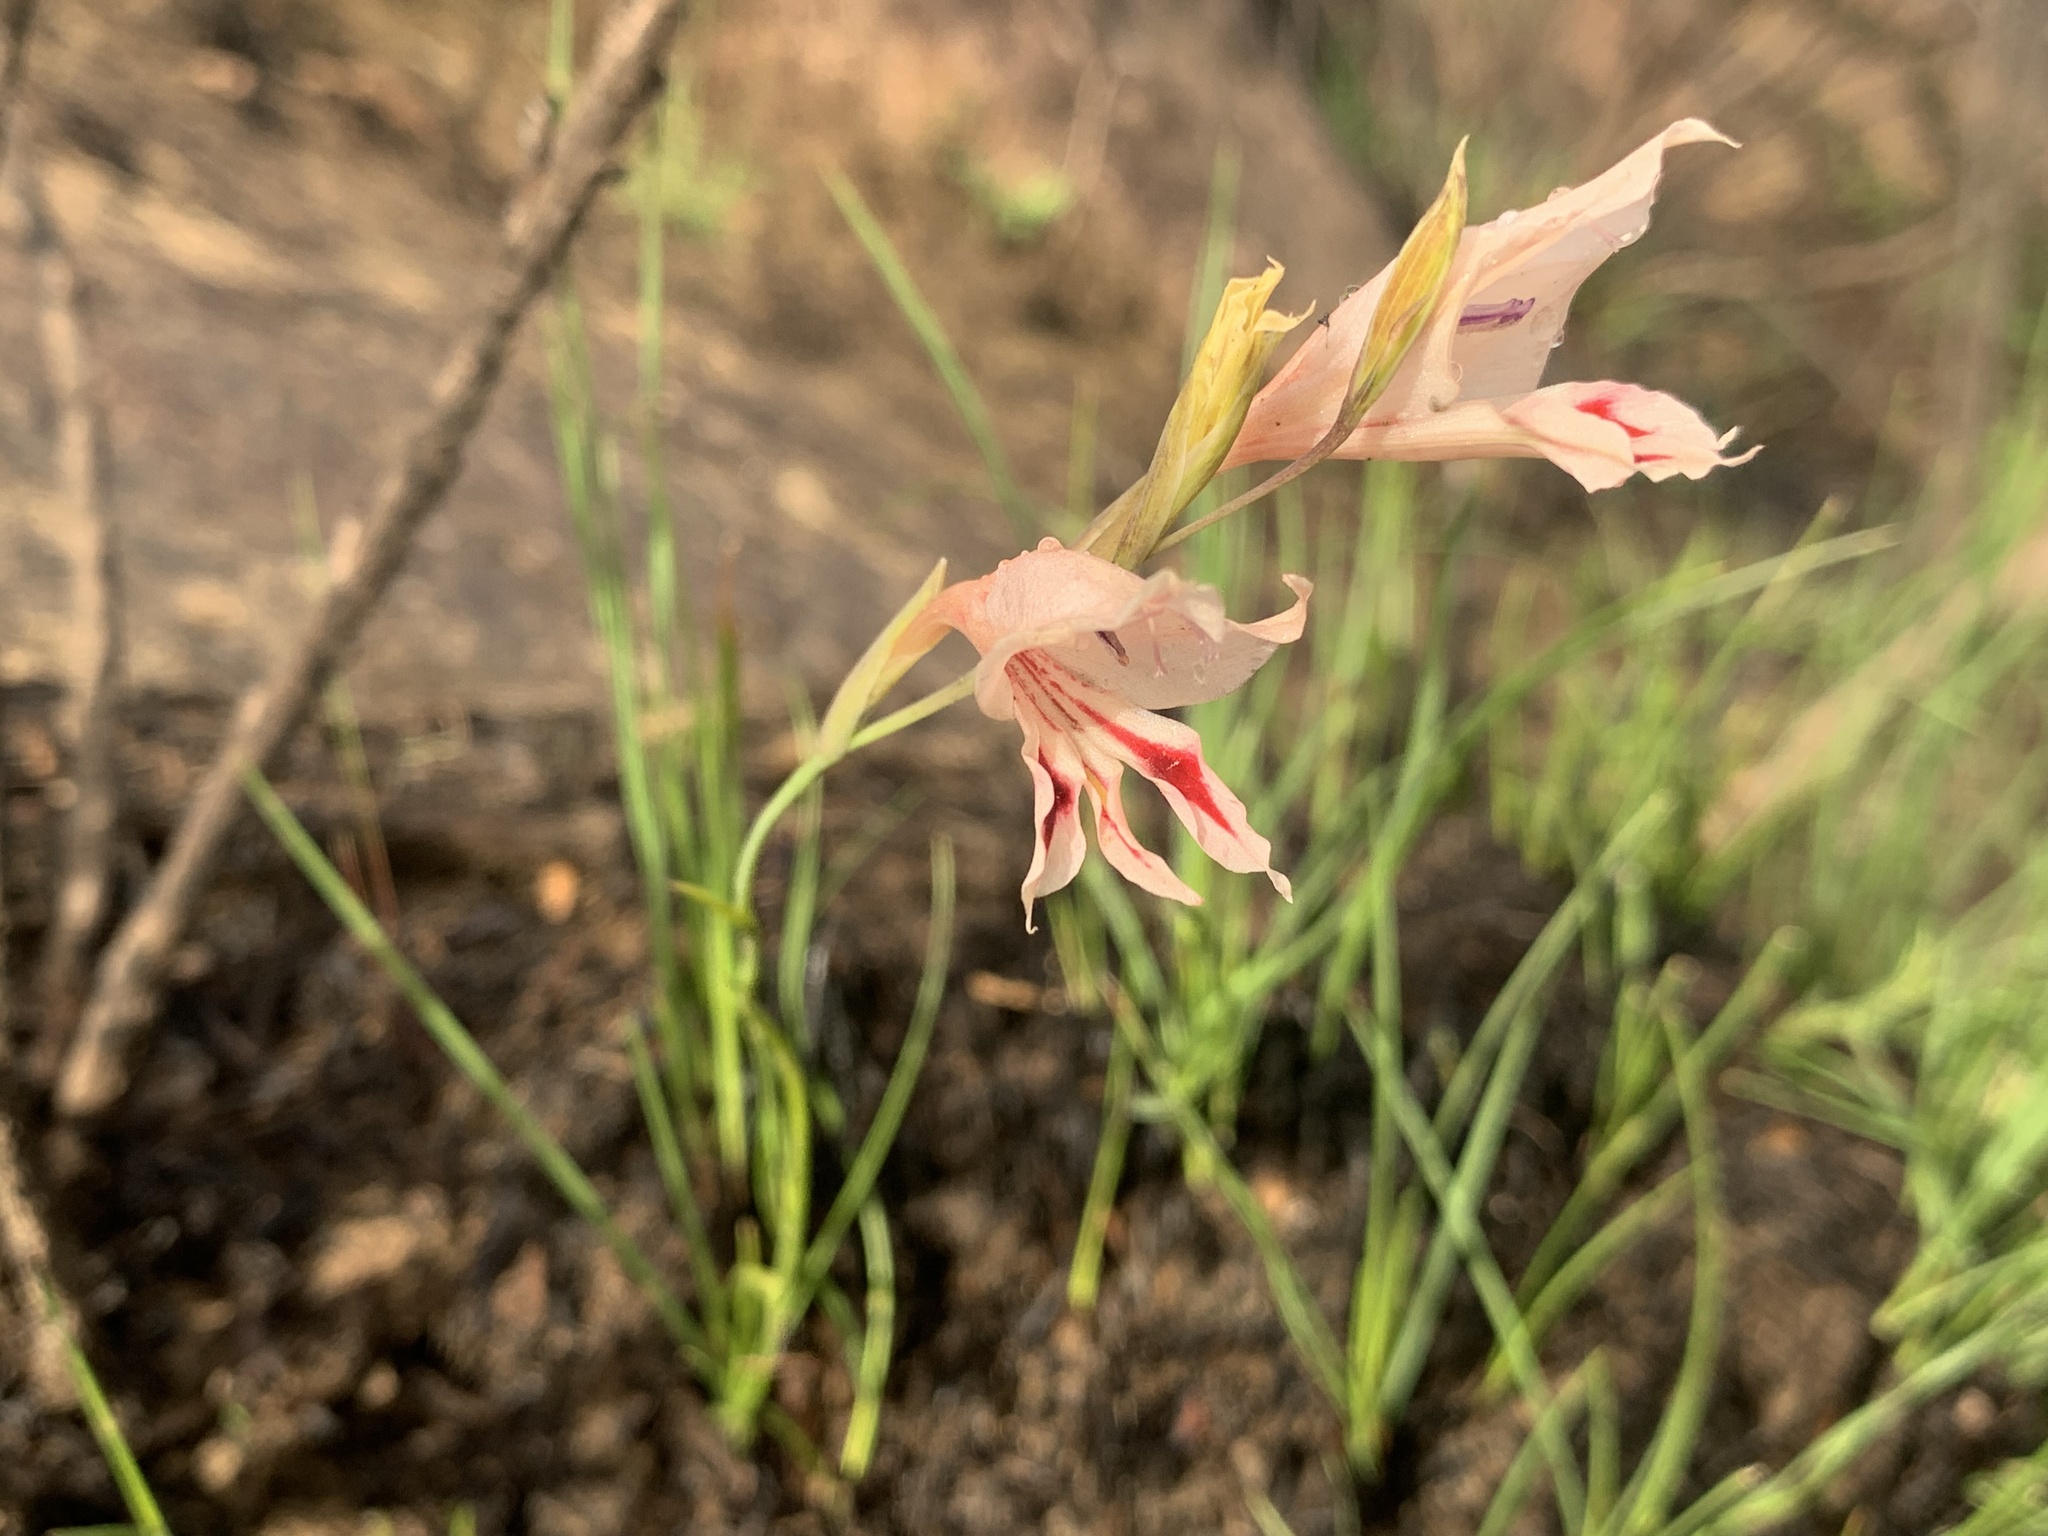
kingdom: Plantae
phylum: Tracheophyta
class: Liliopsida
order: Asparagales
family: Iridaceae
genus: Gladiolus
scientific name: Gladiolus nigromontanus
